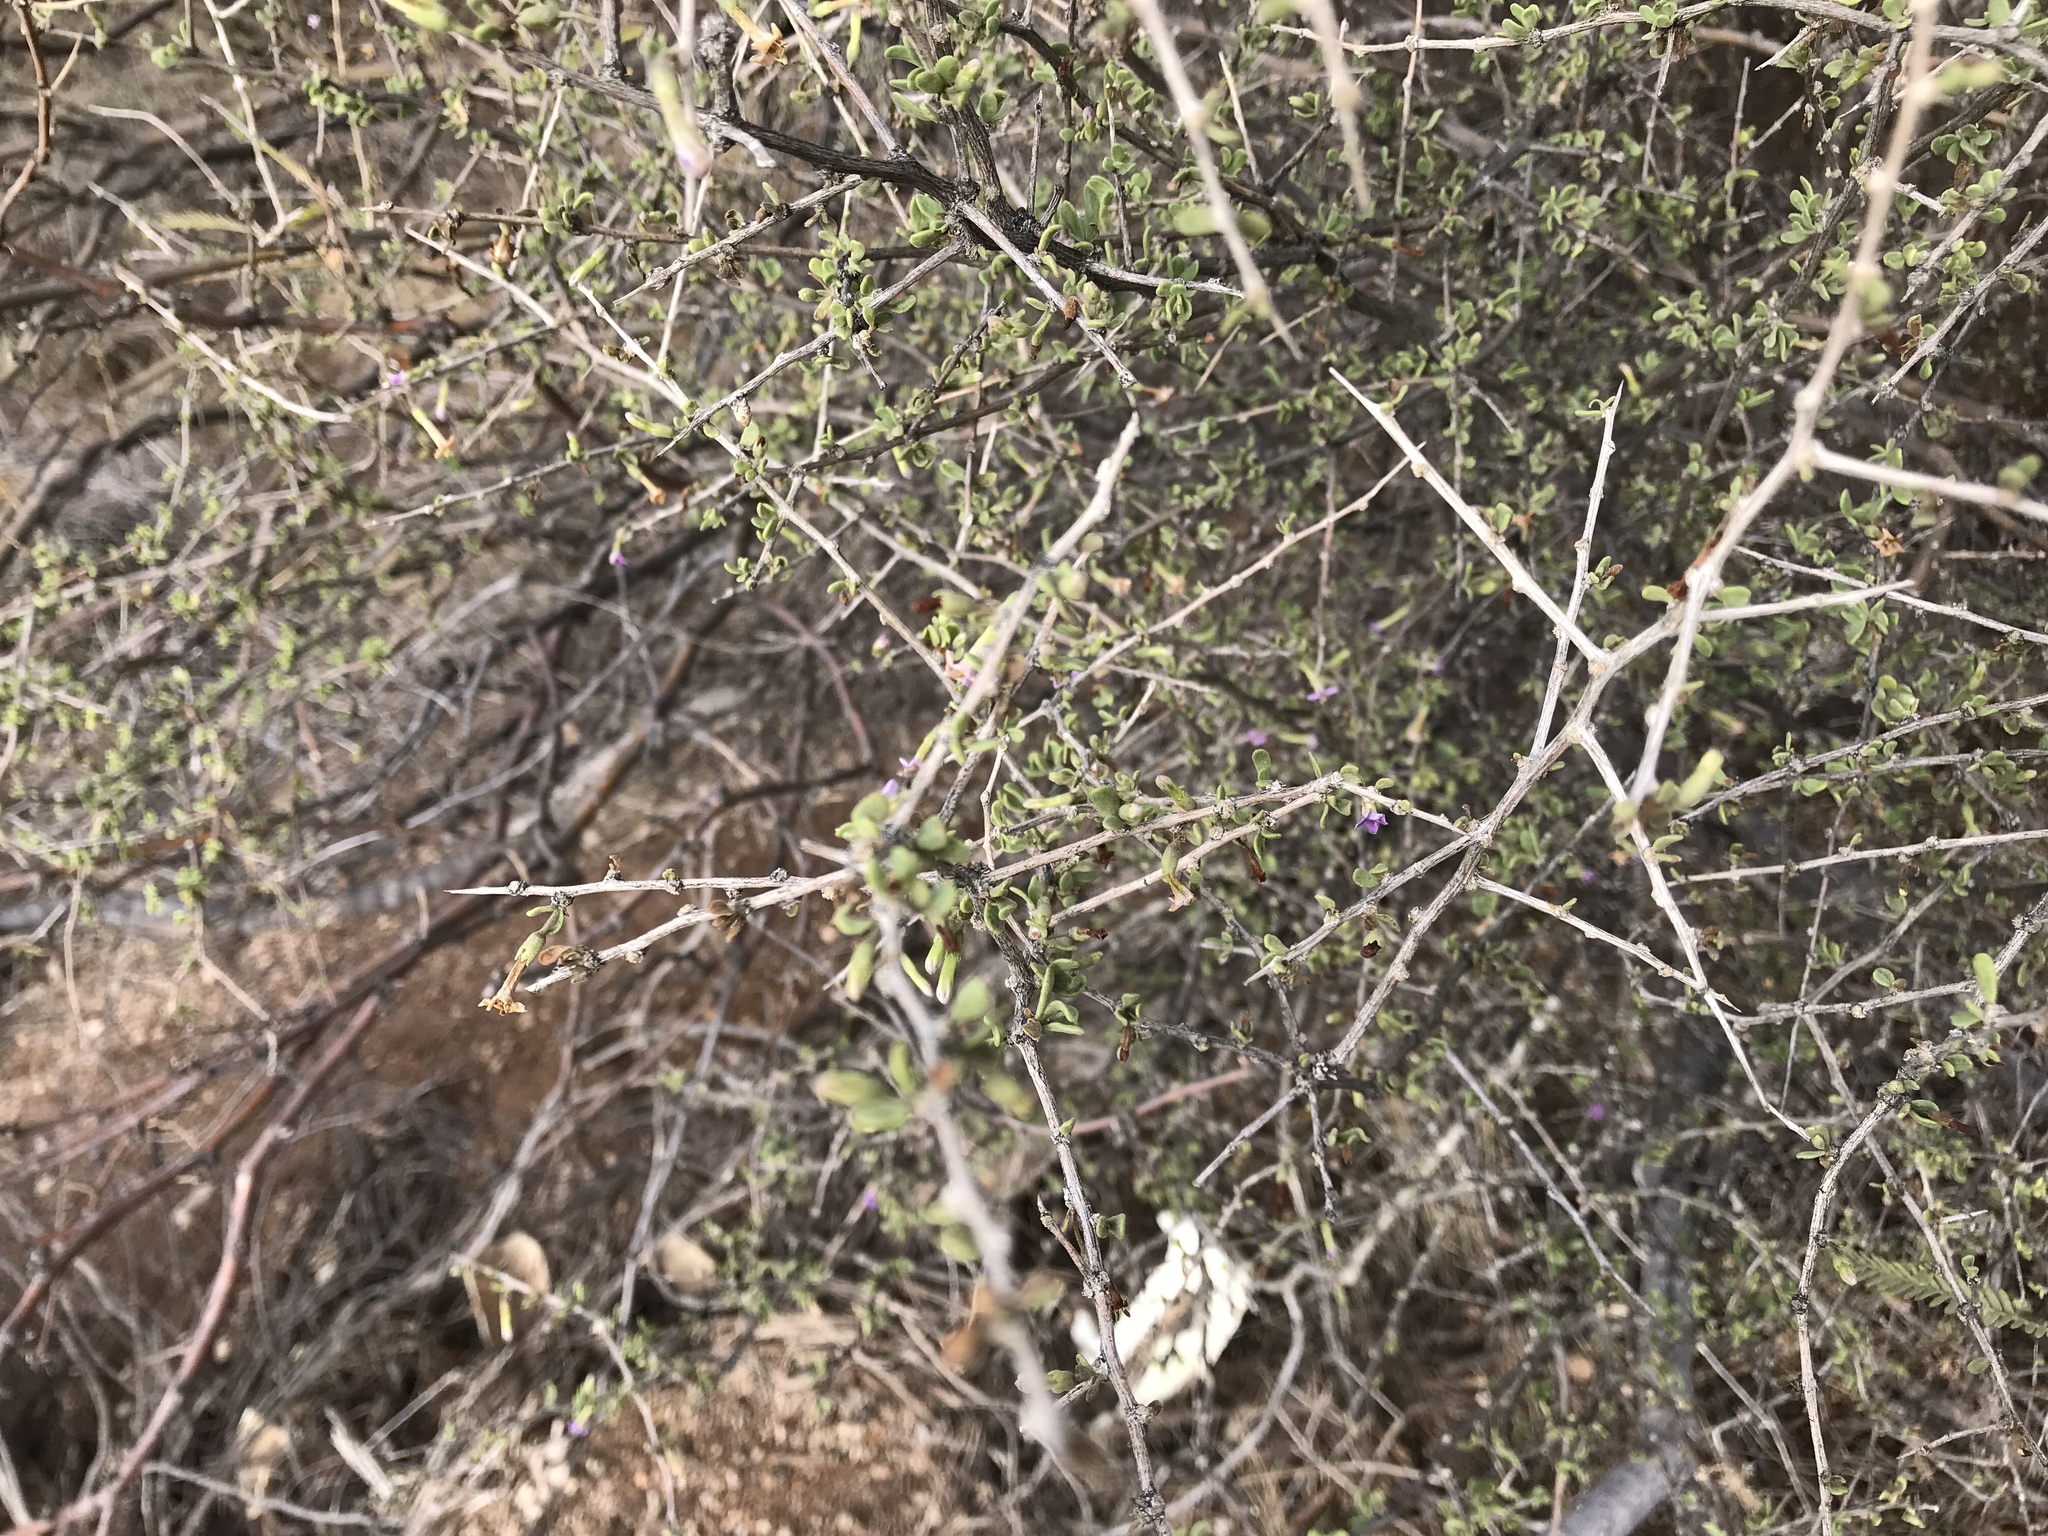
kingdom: Plantae
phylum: Tracheophyta
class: Magnoliopsida
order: Solanales
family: Solanaceae
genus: Lycium
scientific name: Lycium fremontii
